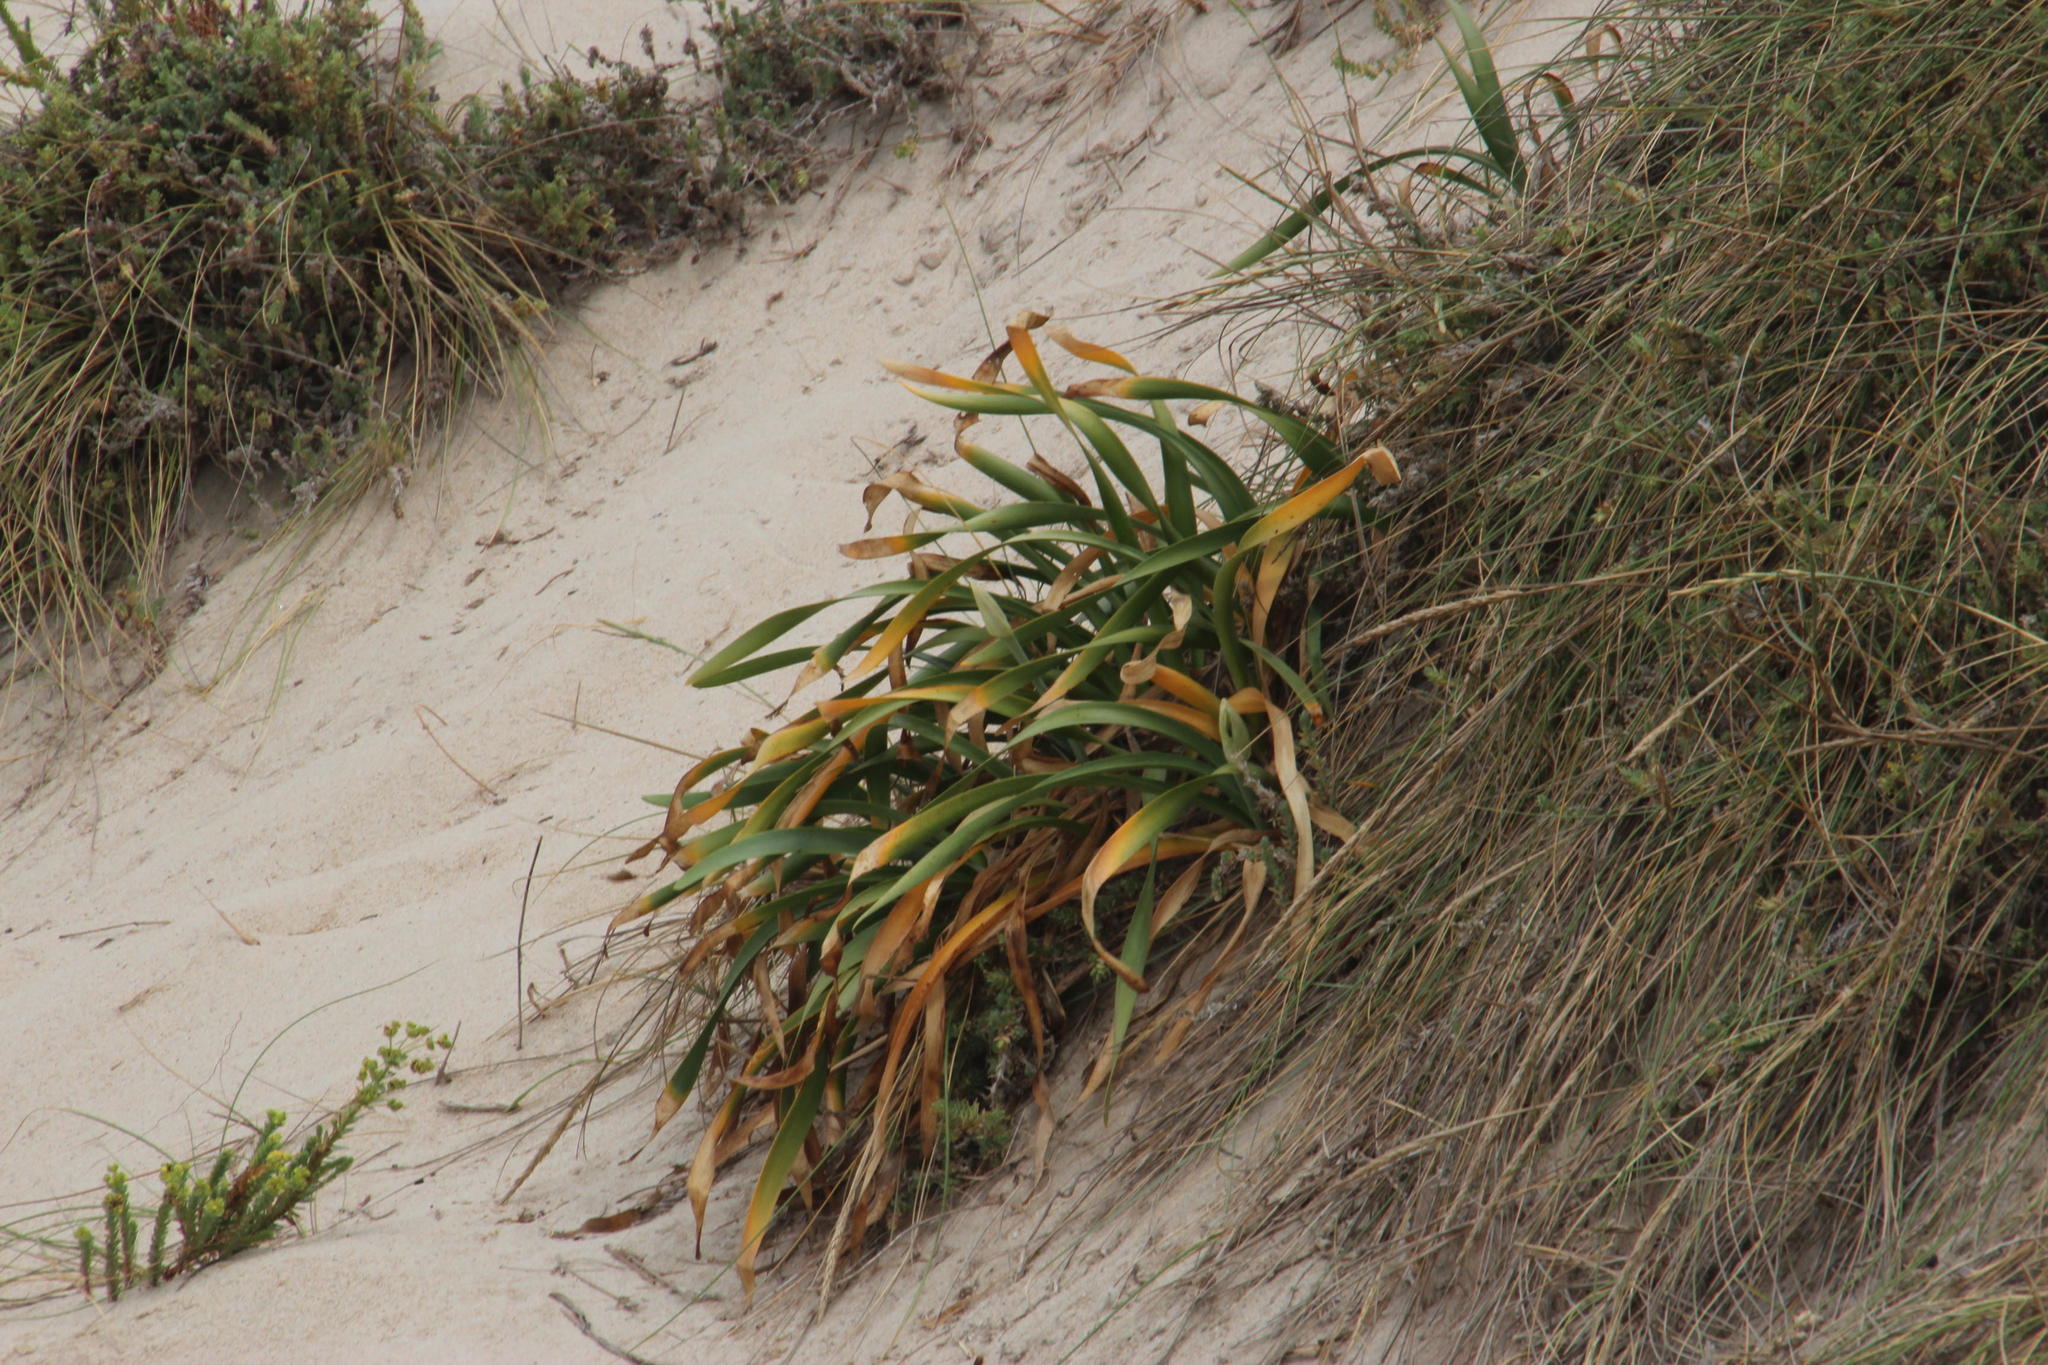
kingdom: Plantae
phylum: Tracheophyta
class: Liliopsida
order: Asparagales
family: Amaryllidaceae
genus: Pancratium
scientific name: Pancratium maritimum
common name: Sea-daffodil
